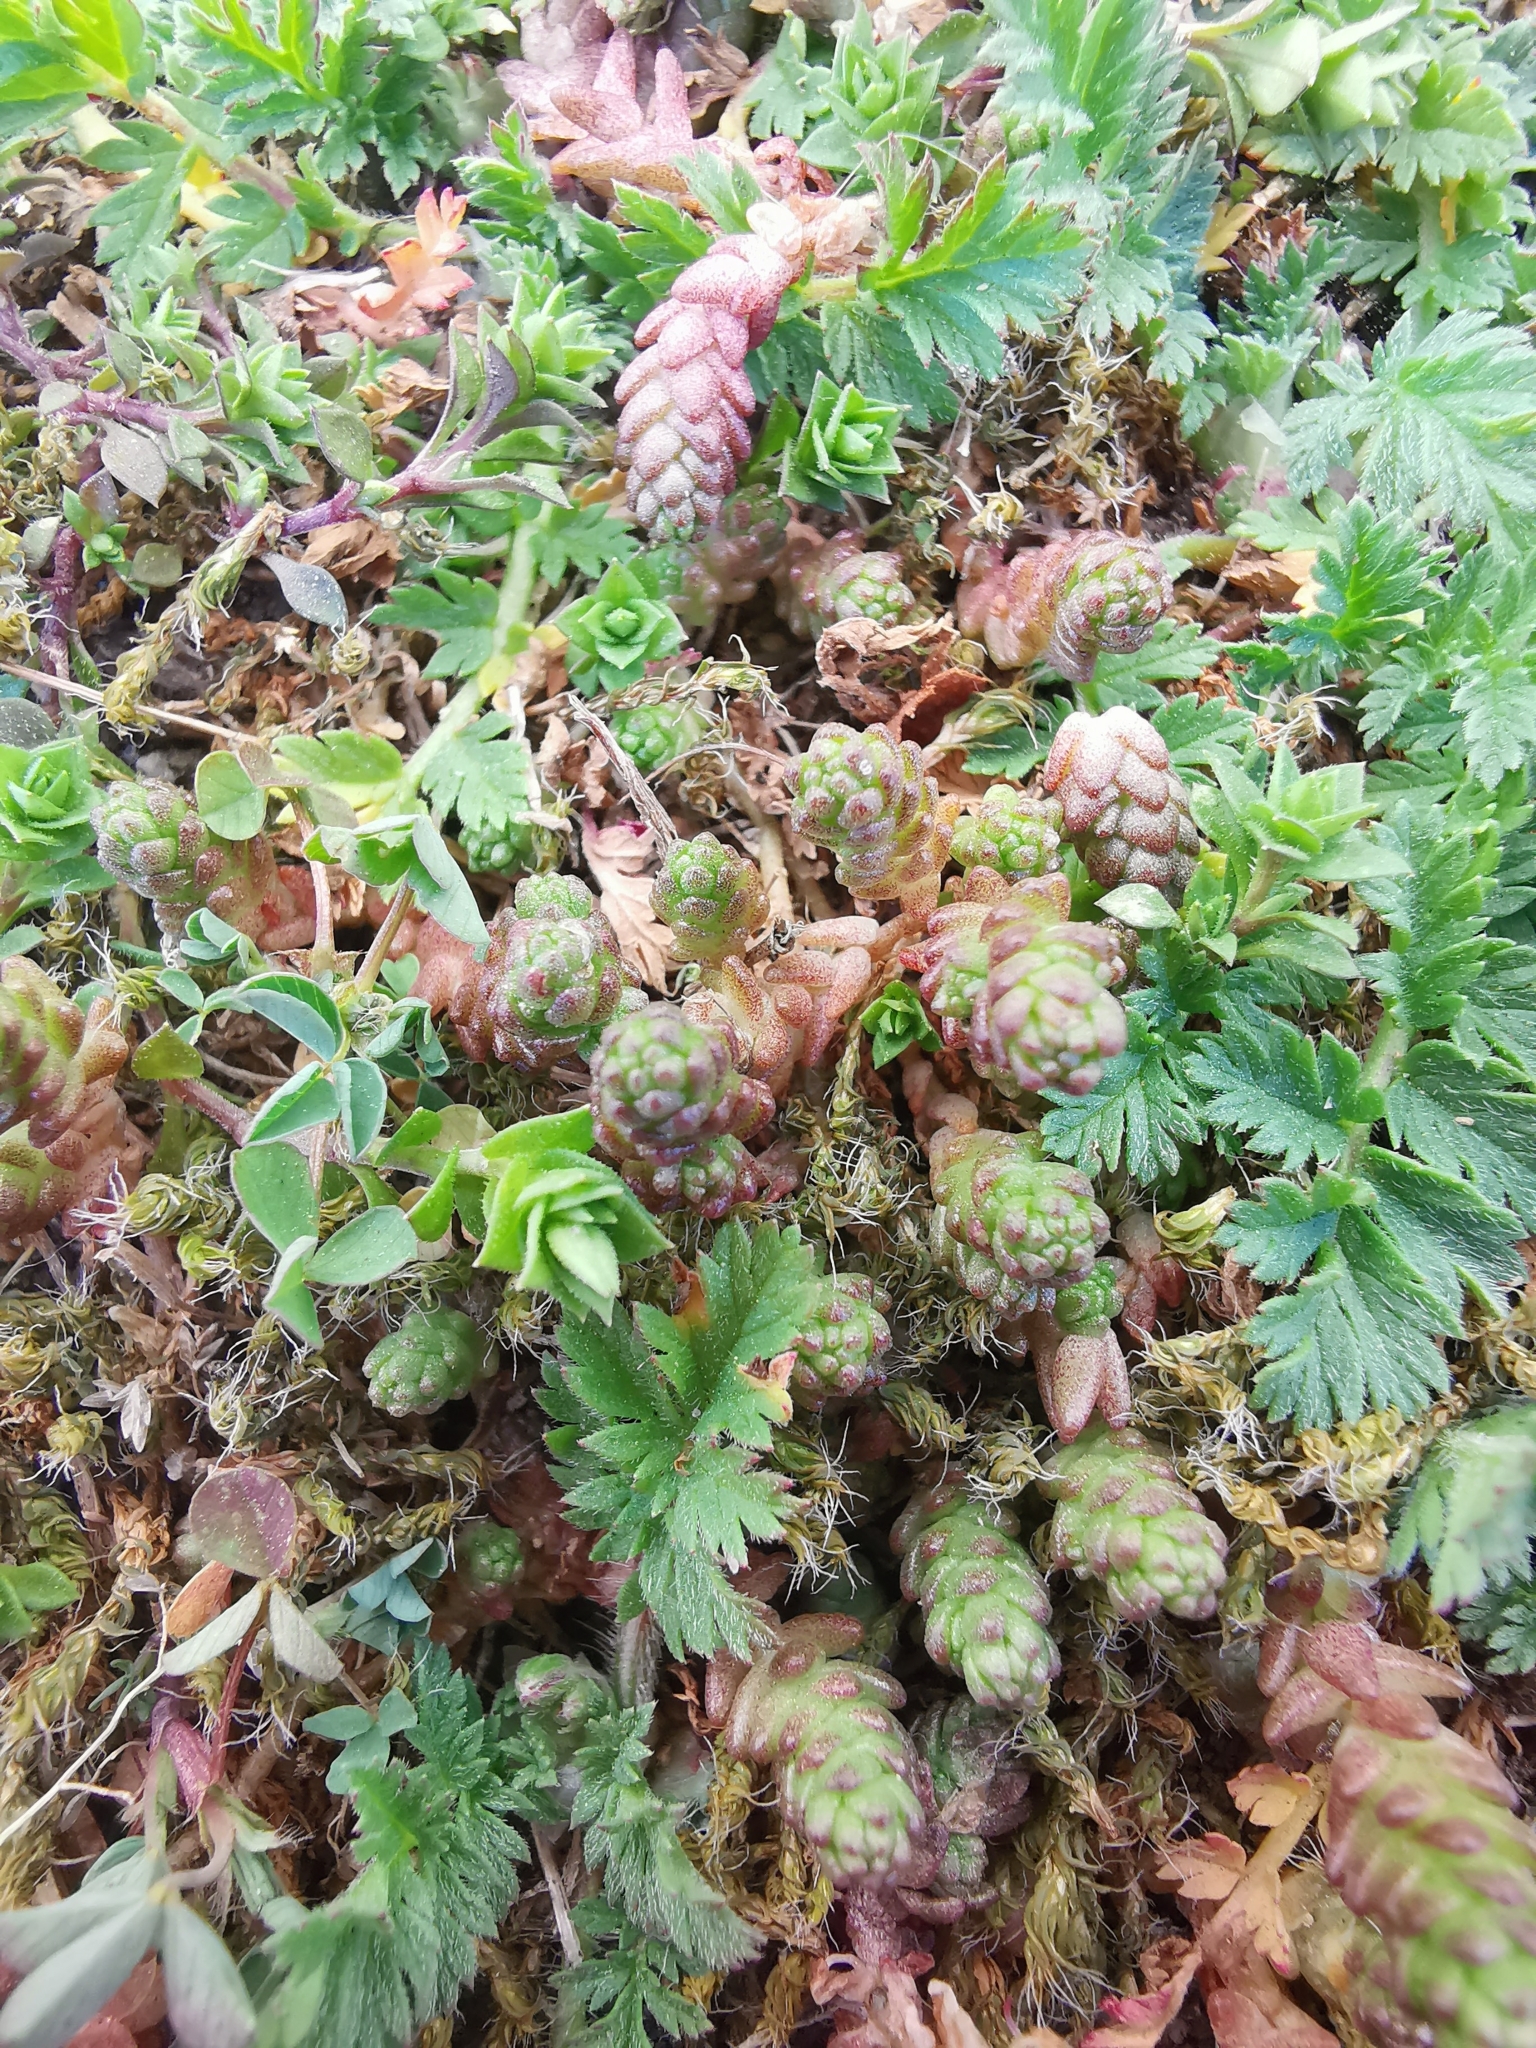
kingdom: Plantae
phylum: Tracheophyta
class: Magnoliopsida
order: Saxifragales
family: Crassulaceae
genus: Sedum
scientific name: Sedum acre
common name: Biting stonecrop
